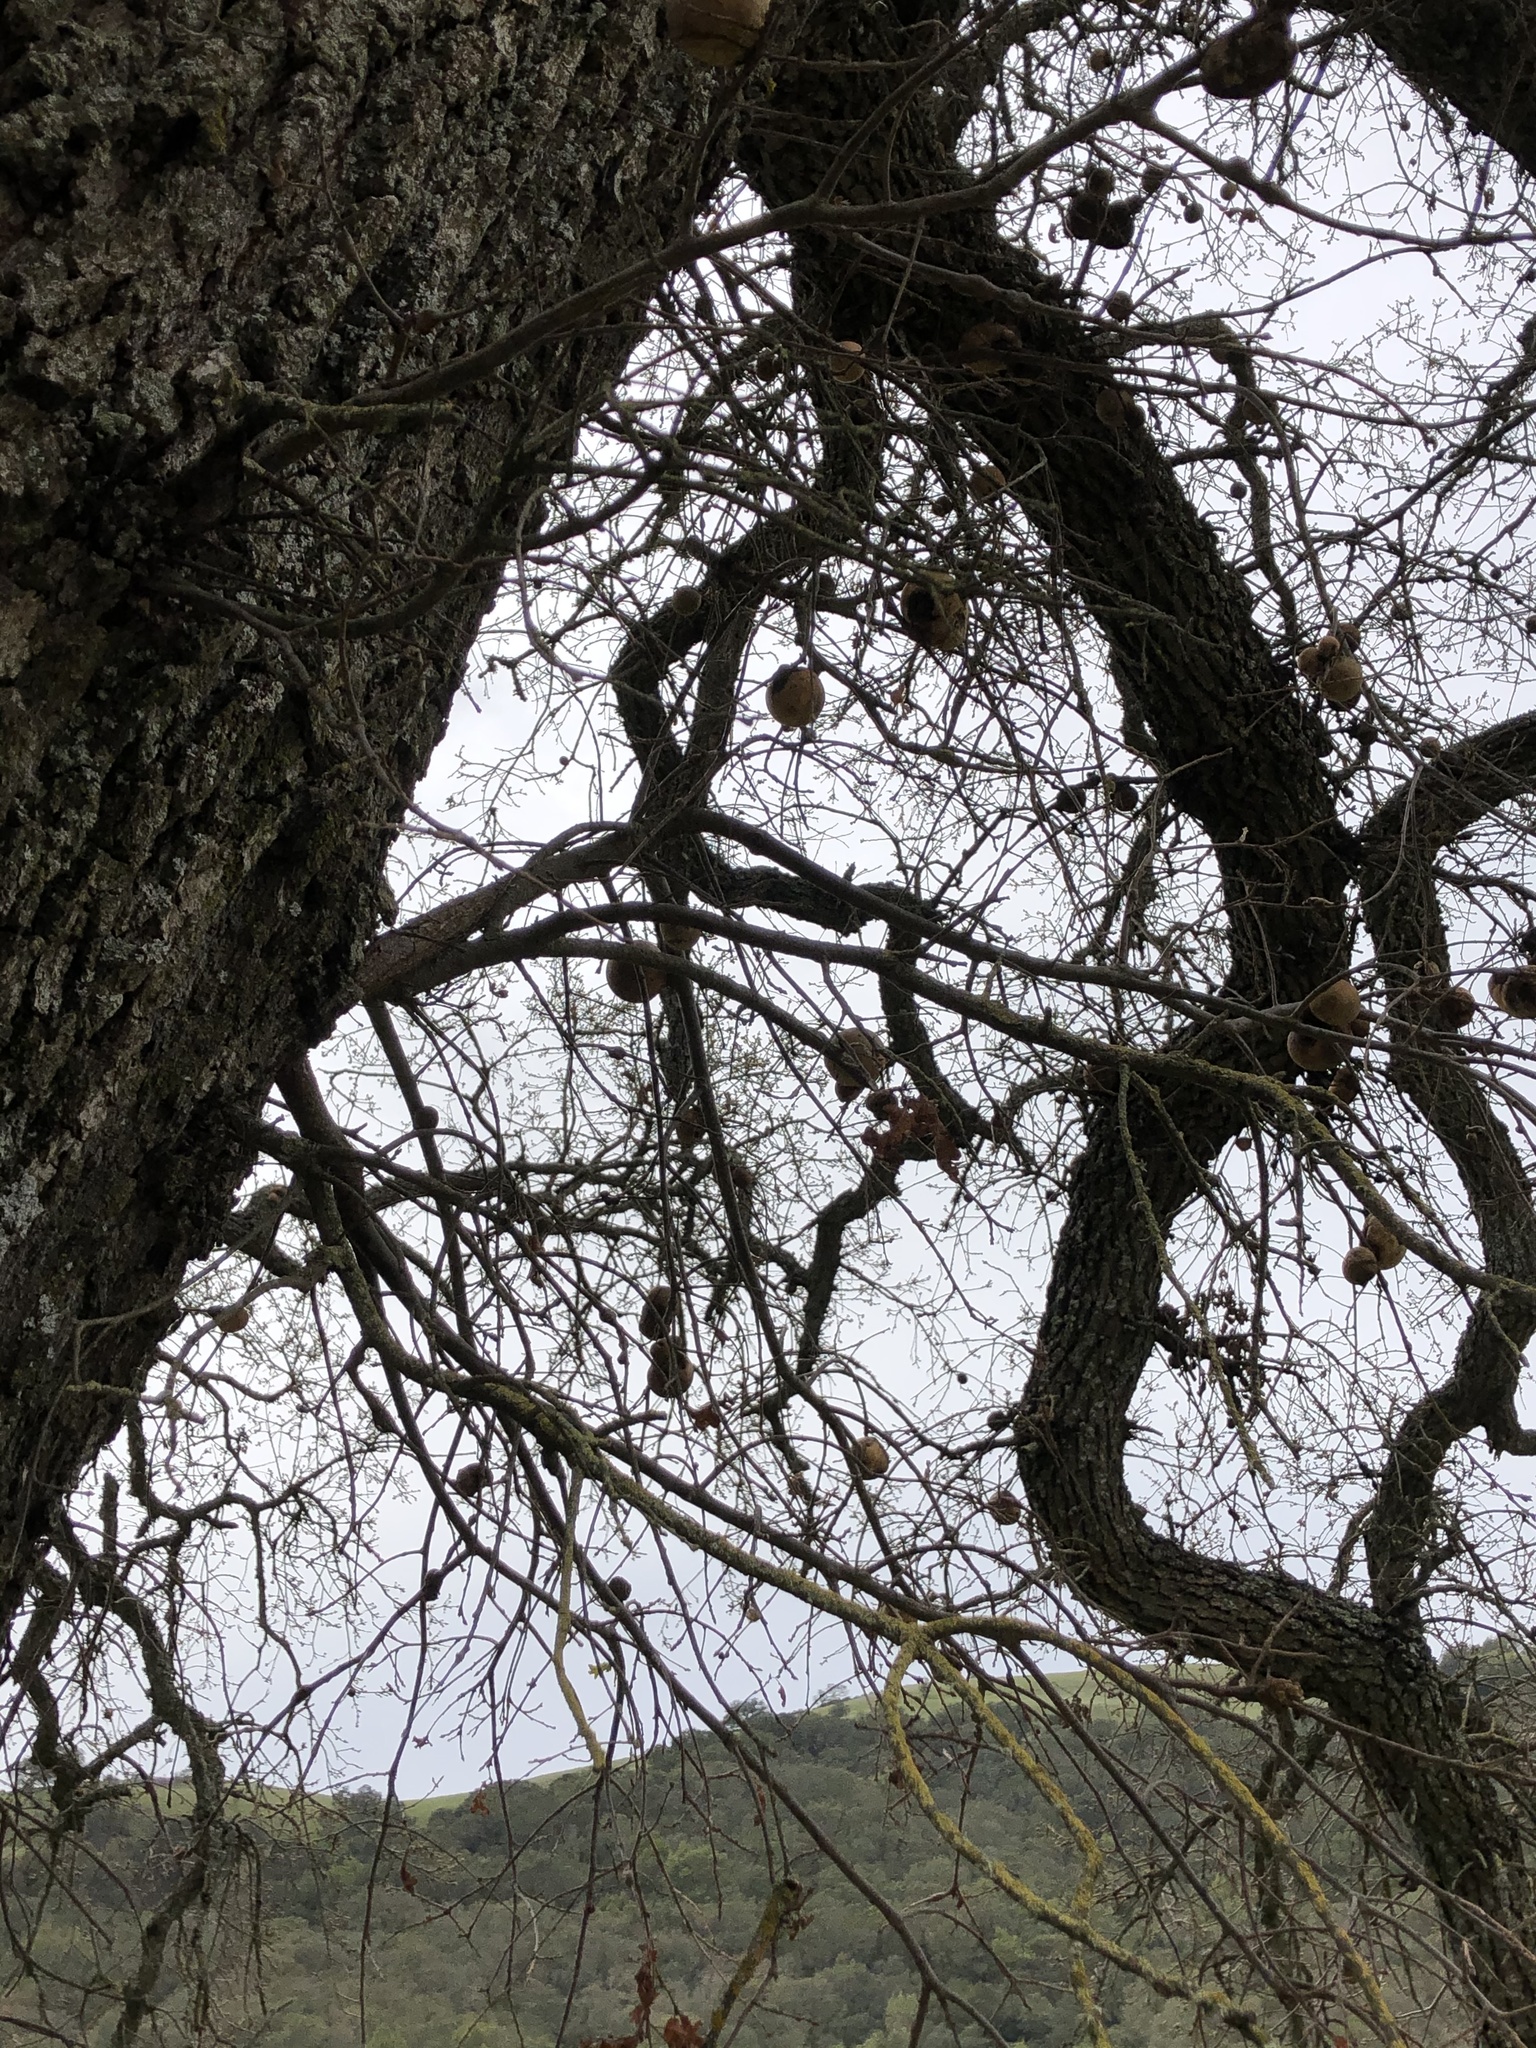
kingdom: Animalia
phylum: Arthropoda
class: Insecta
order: Hymenoptera
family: Cynipidae
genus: Amphibolips
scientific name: Amphibolips quercuspomiformis
